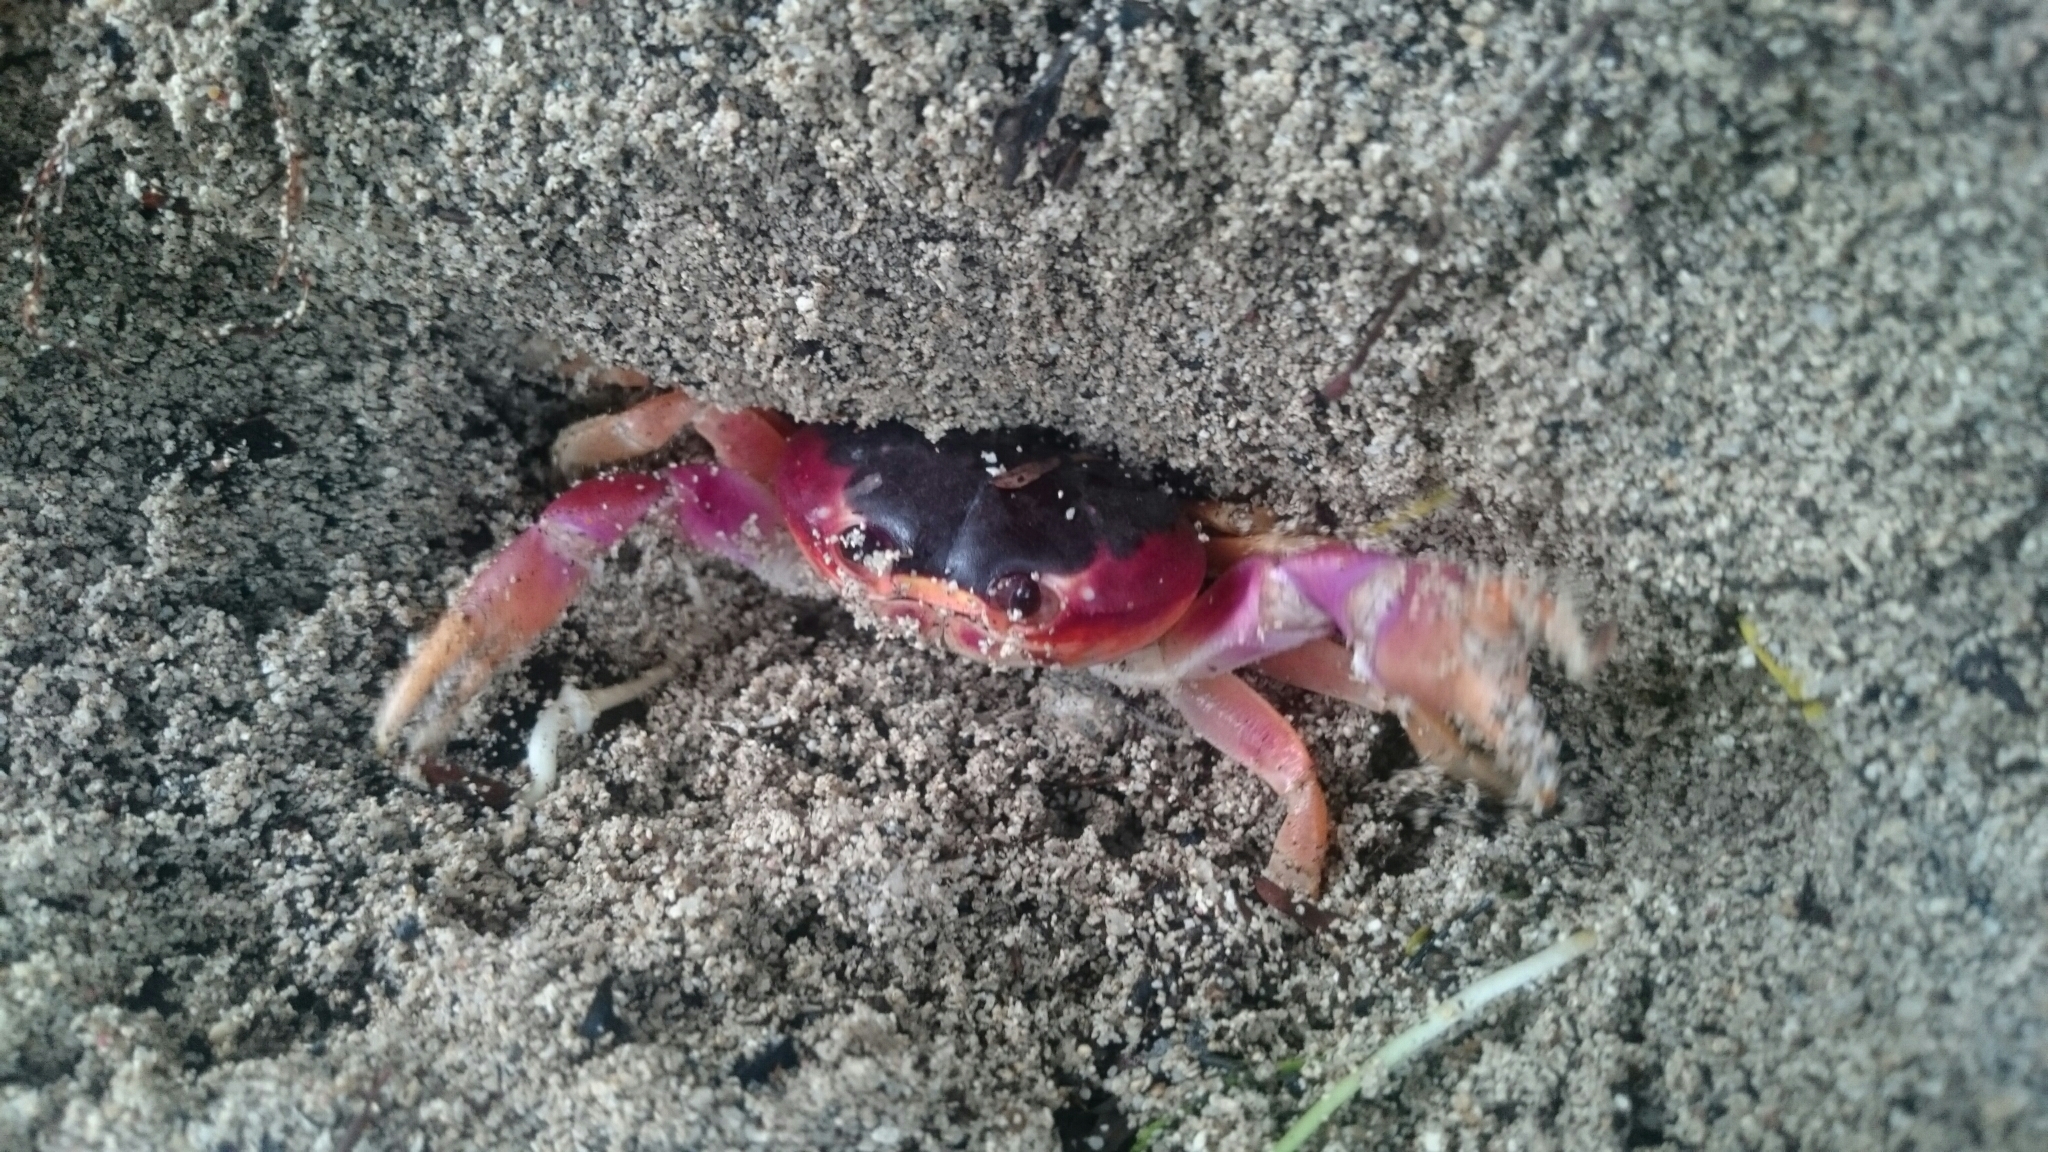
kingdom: Animalia
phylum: Arthropoda
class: Malacostraca
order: Decapoda
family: Gecarcinidae
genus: Gecarcinus
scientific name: Gecarcinus lateralis
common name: Bermuda land crab
